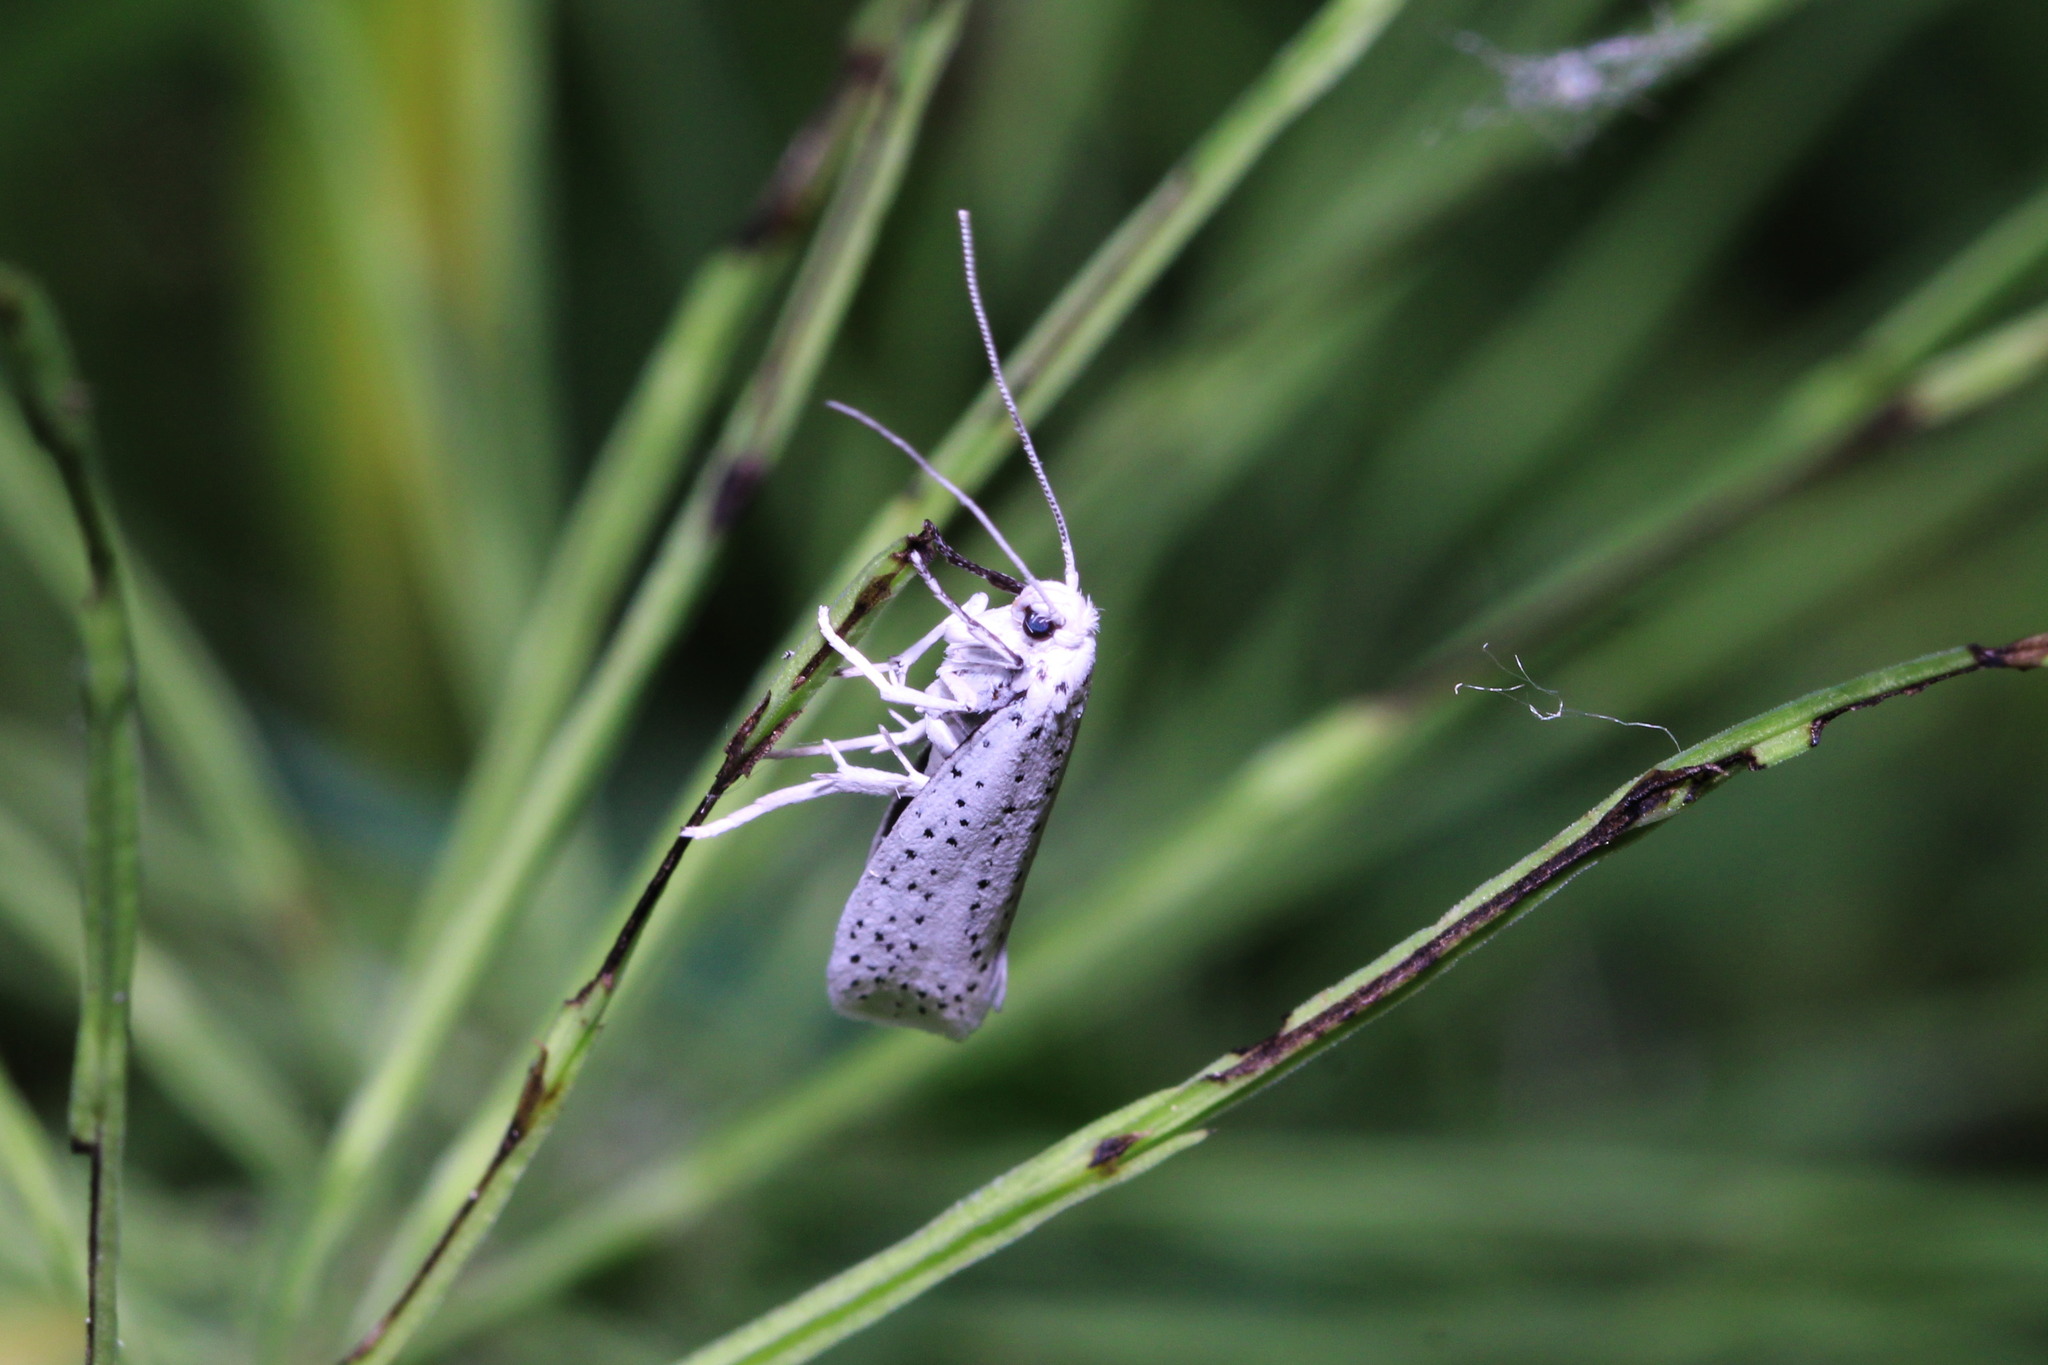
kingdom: Animalia
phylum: Arthropoda
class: Insecta
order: Lepidoptera
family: Yponomeutidae
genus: Yponomeuta
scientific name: Yponomeuta evonymella
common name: Bird-cherry ermine
